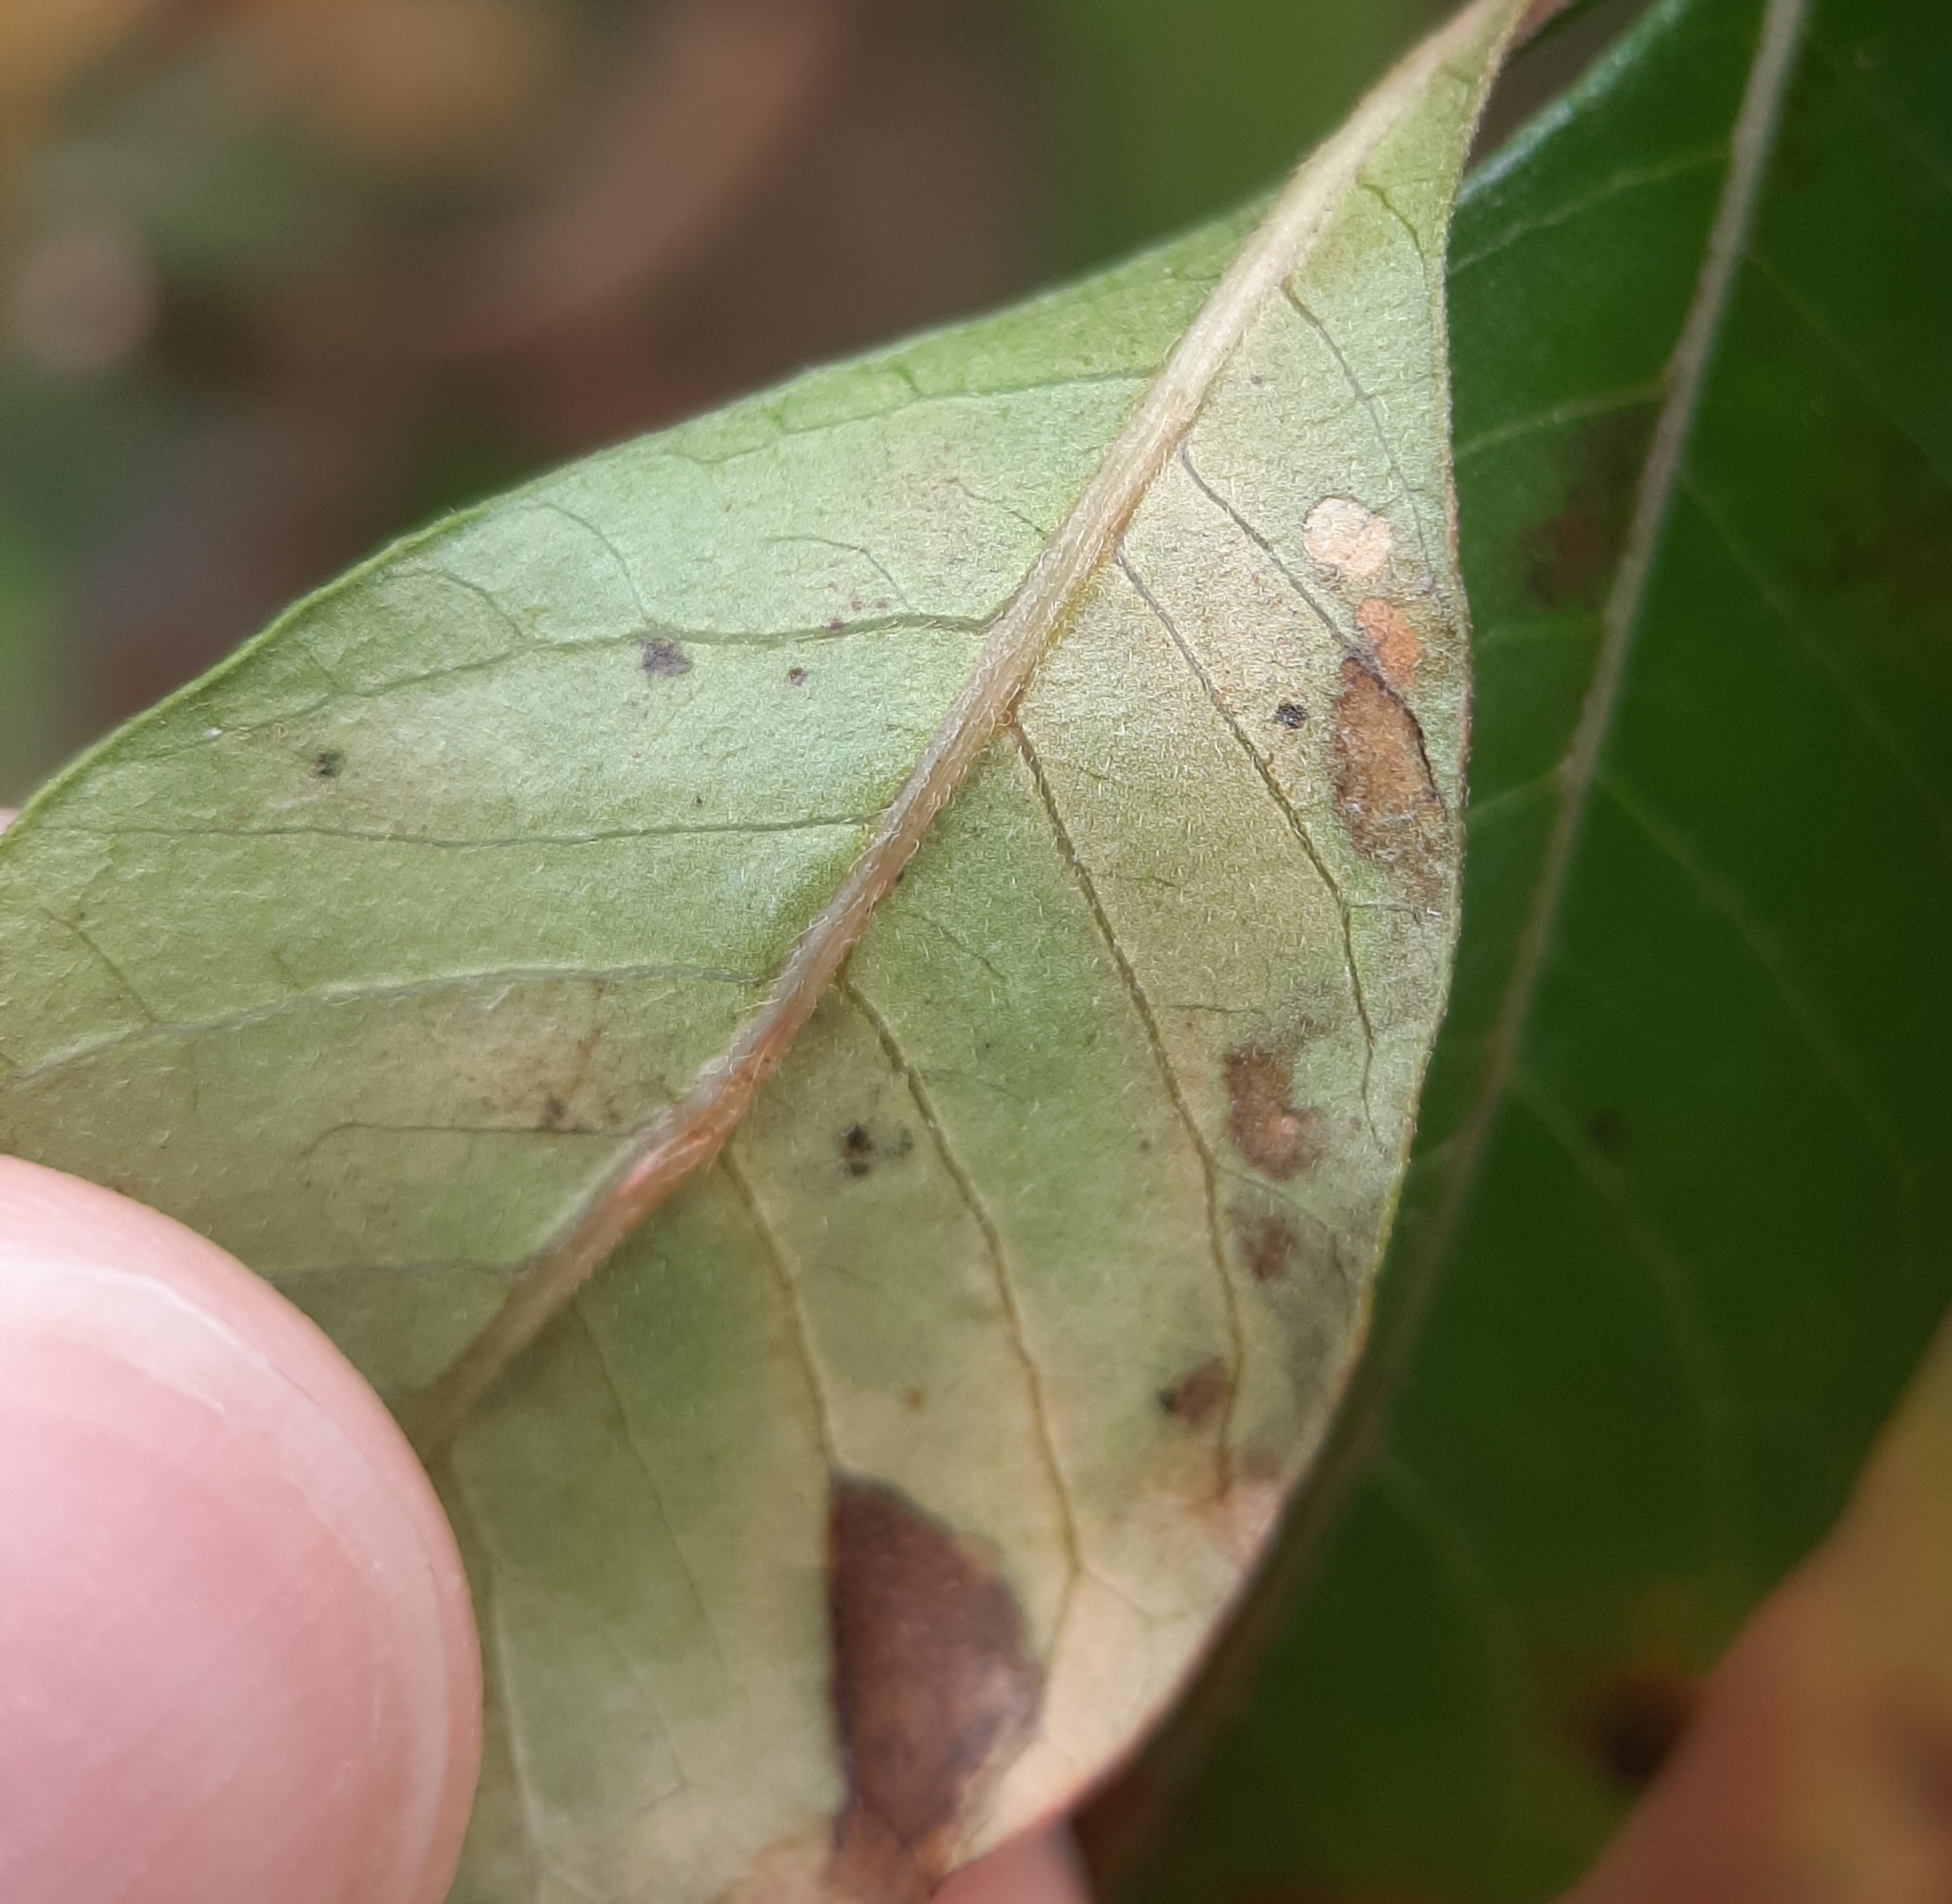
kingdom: Animalia
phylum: Arthropoda
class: Insecta
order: Lepidoptera
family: Nepticulidae
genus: Stigmella
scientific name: Stigmella intermedia
